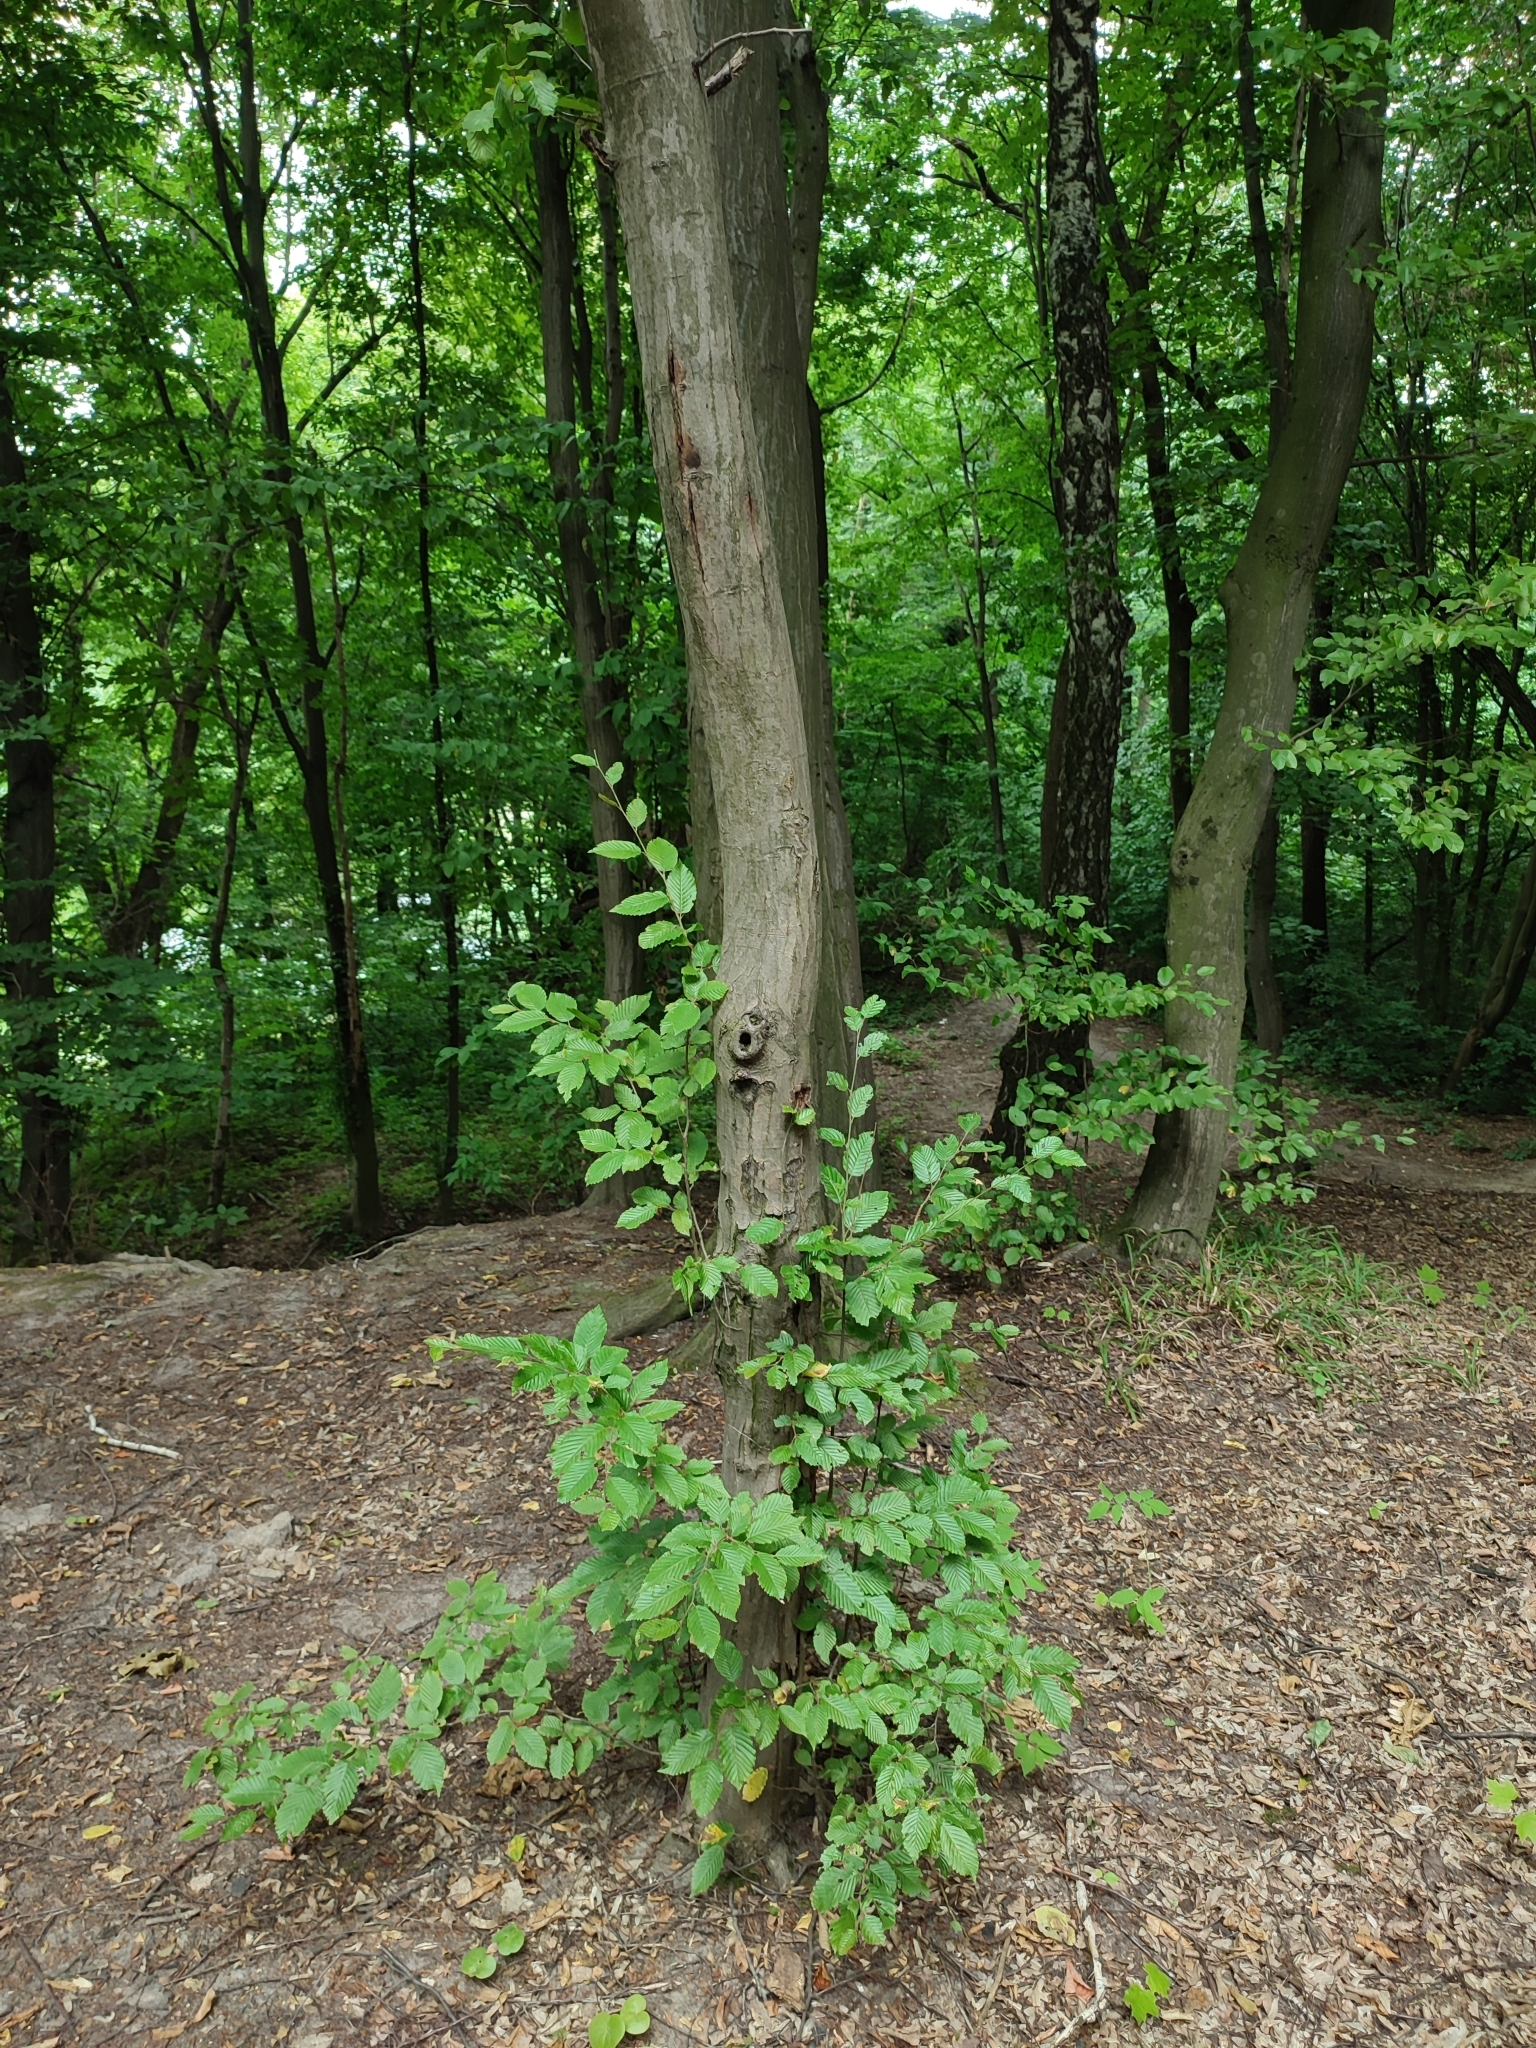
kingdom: Plantae
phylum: Tracheophyta
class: Magnoliopsida
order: Fagales
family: Betulaceae
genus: Carpinus
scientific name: Carpinus betulus
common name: Hornbeam
